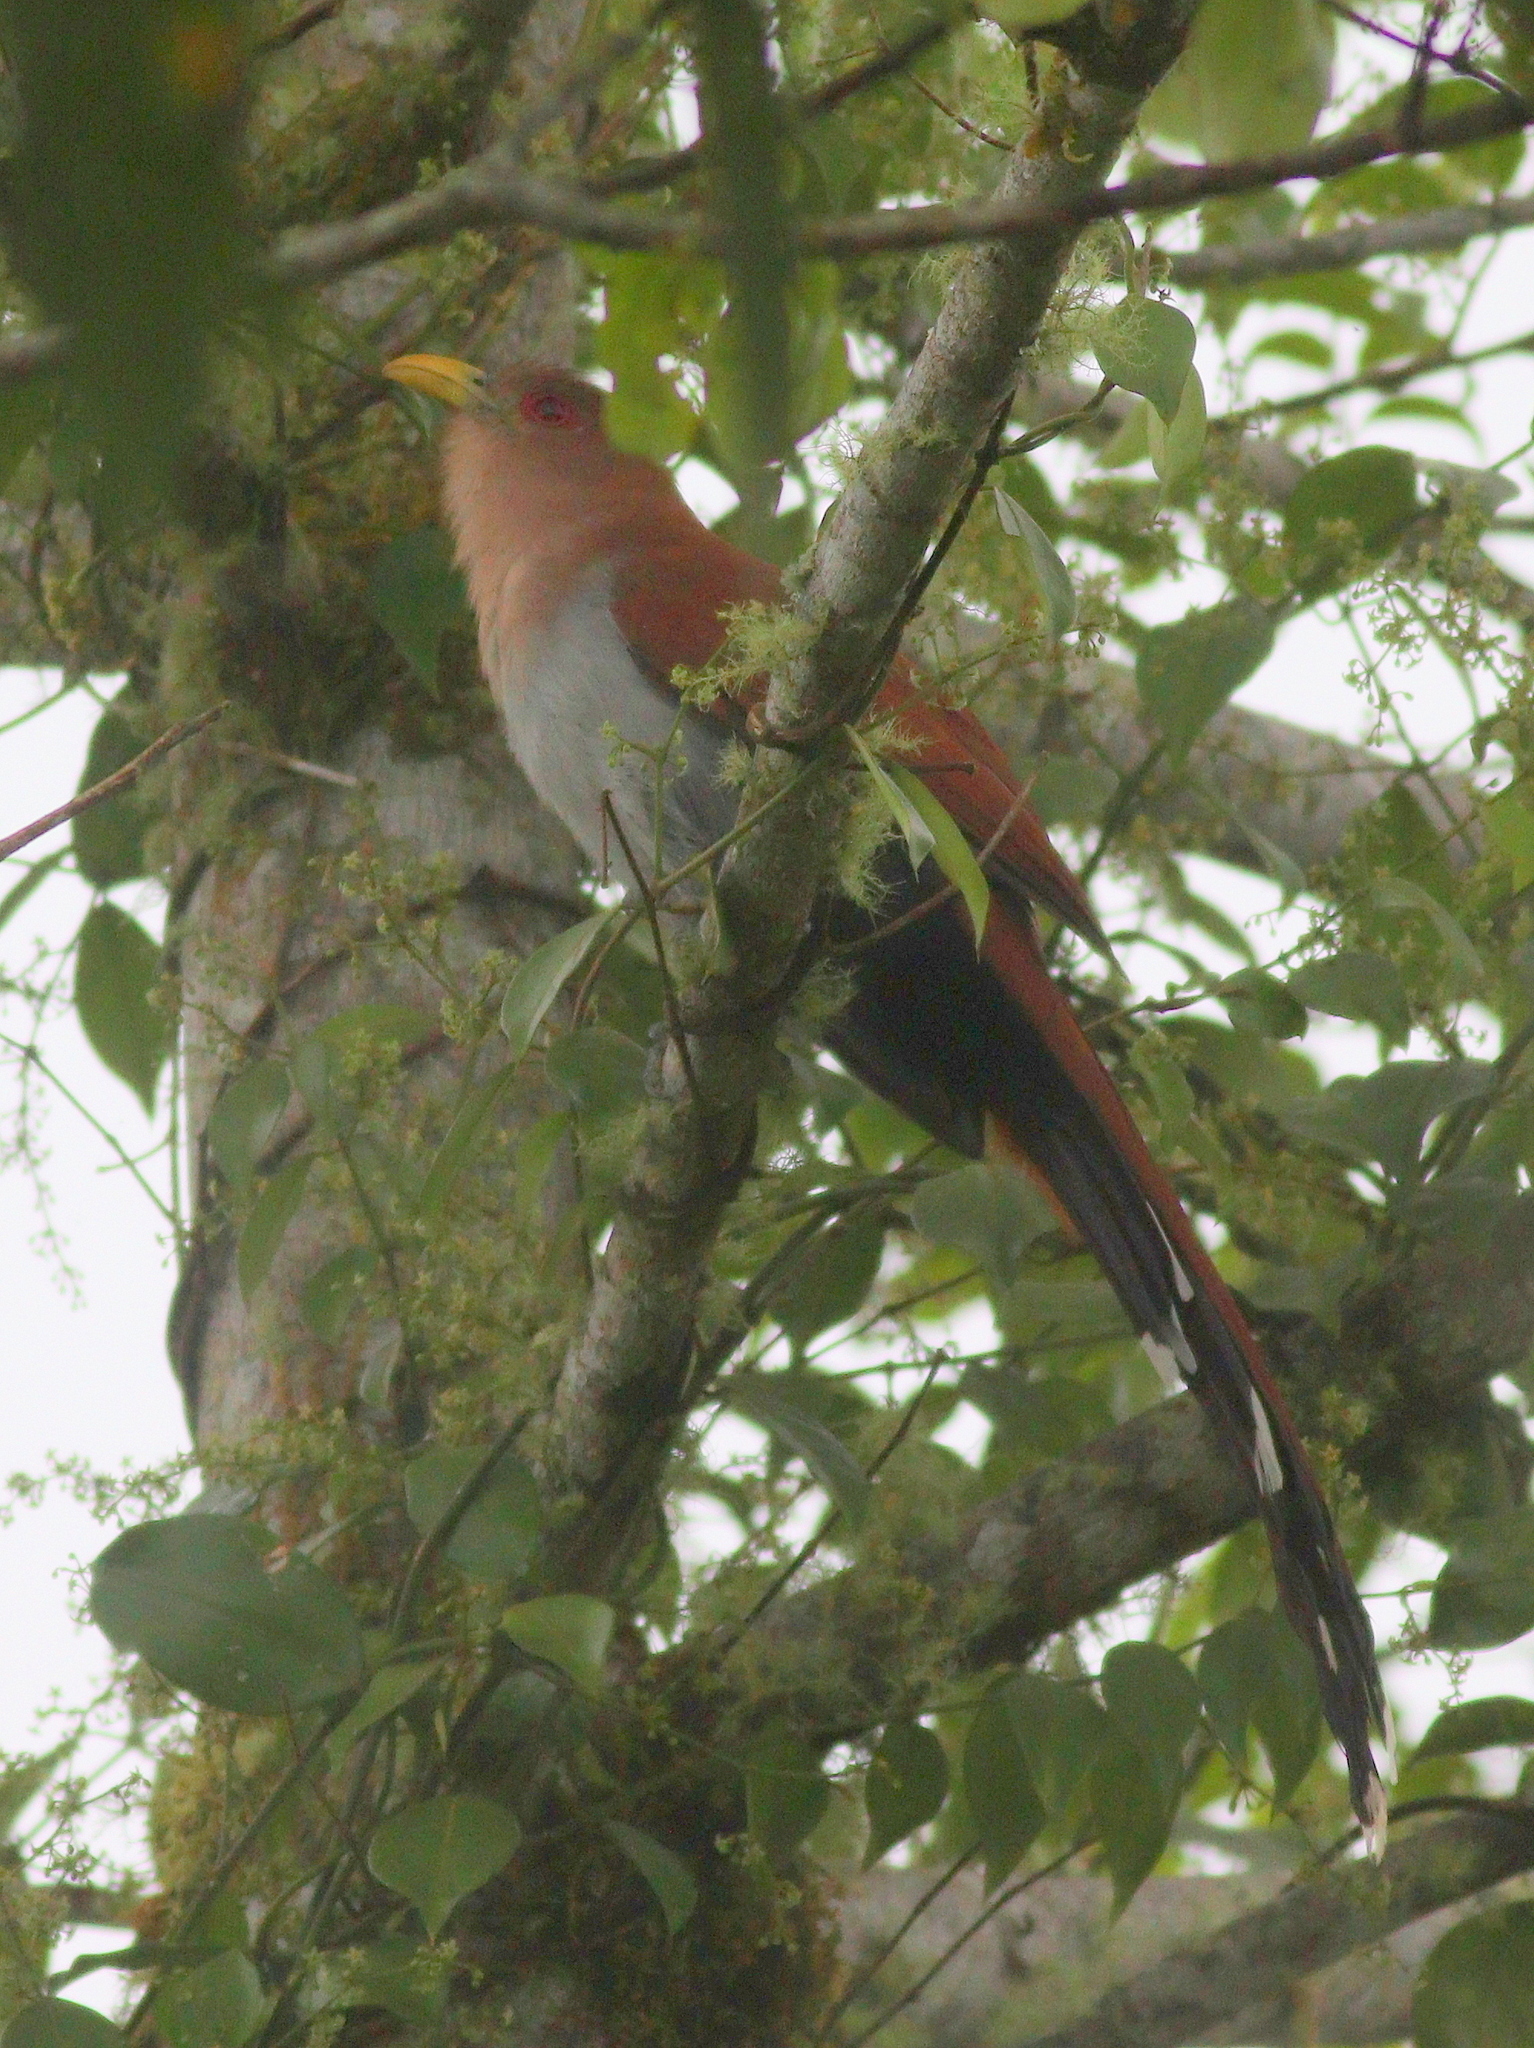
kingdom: Animalia
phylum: Chordata
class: Aves
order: Cuculiformes
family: Cuculidae
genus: Piaya
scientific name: Piaya cayana
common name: Squirrel cuckoo
